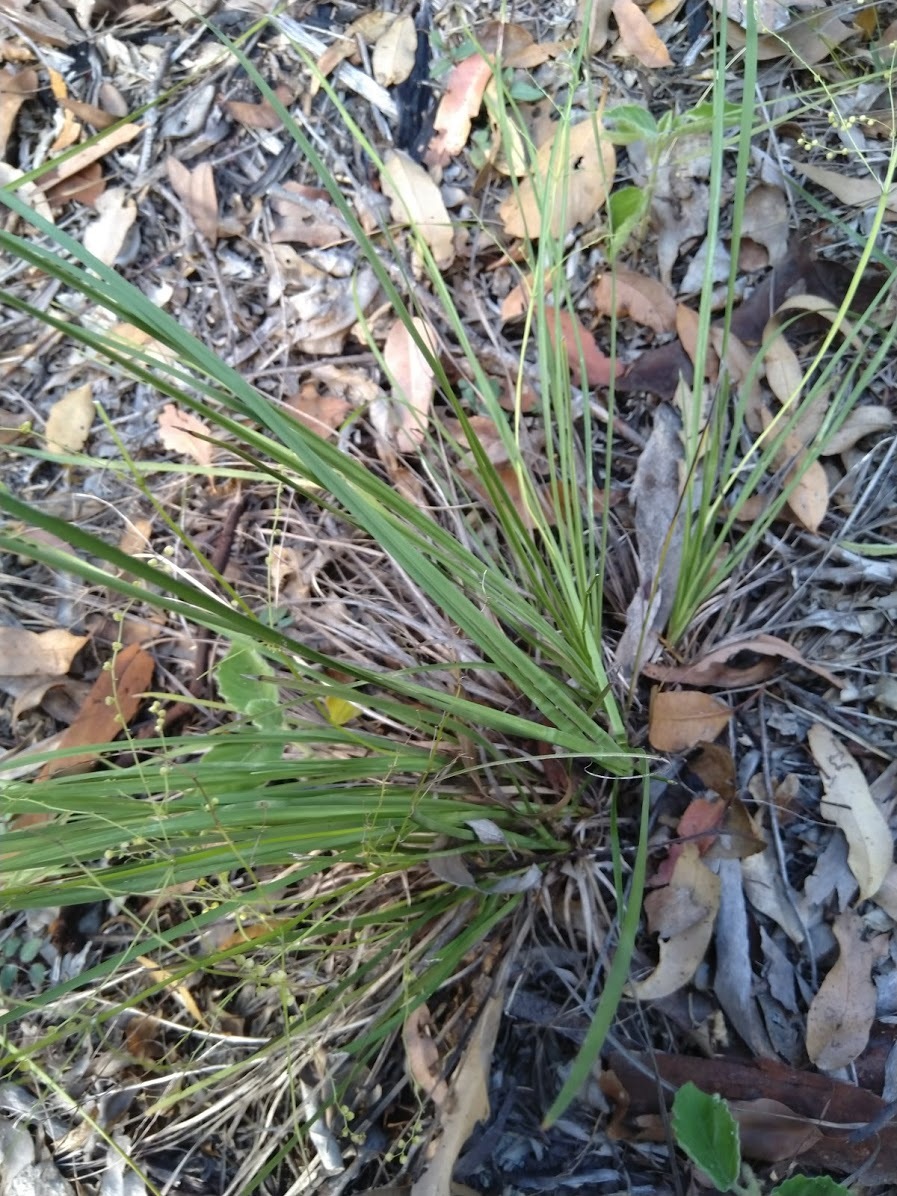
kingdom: Plantae
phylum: Tracheophyta
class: Liliopsida
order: Asparagales
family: Asparagaceae
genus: Lomandra
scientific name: Lomandra laxa
